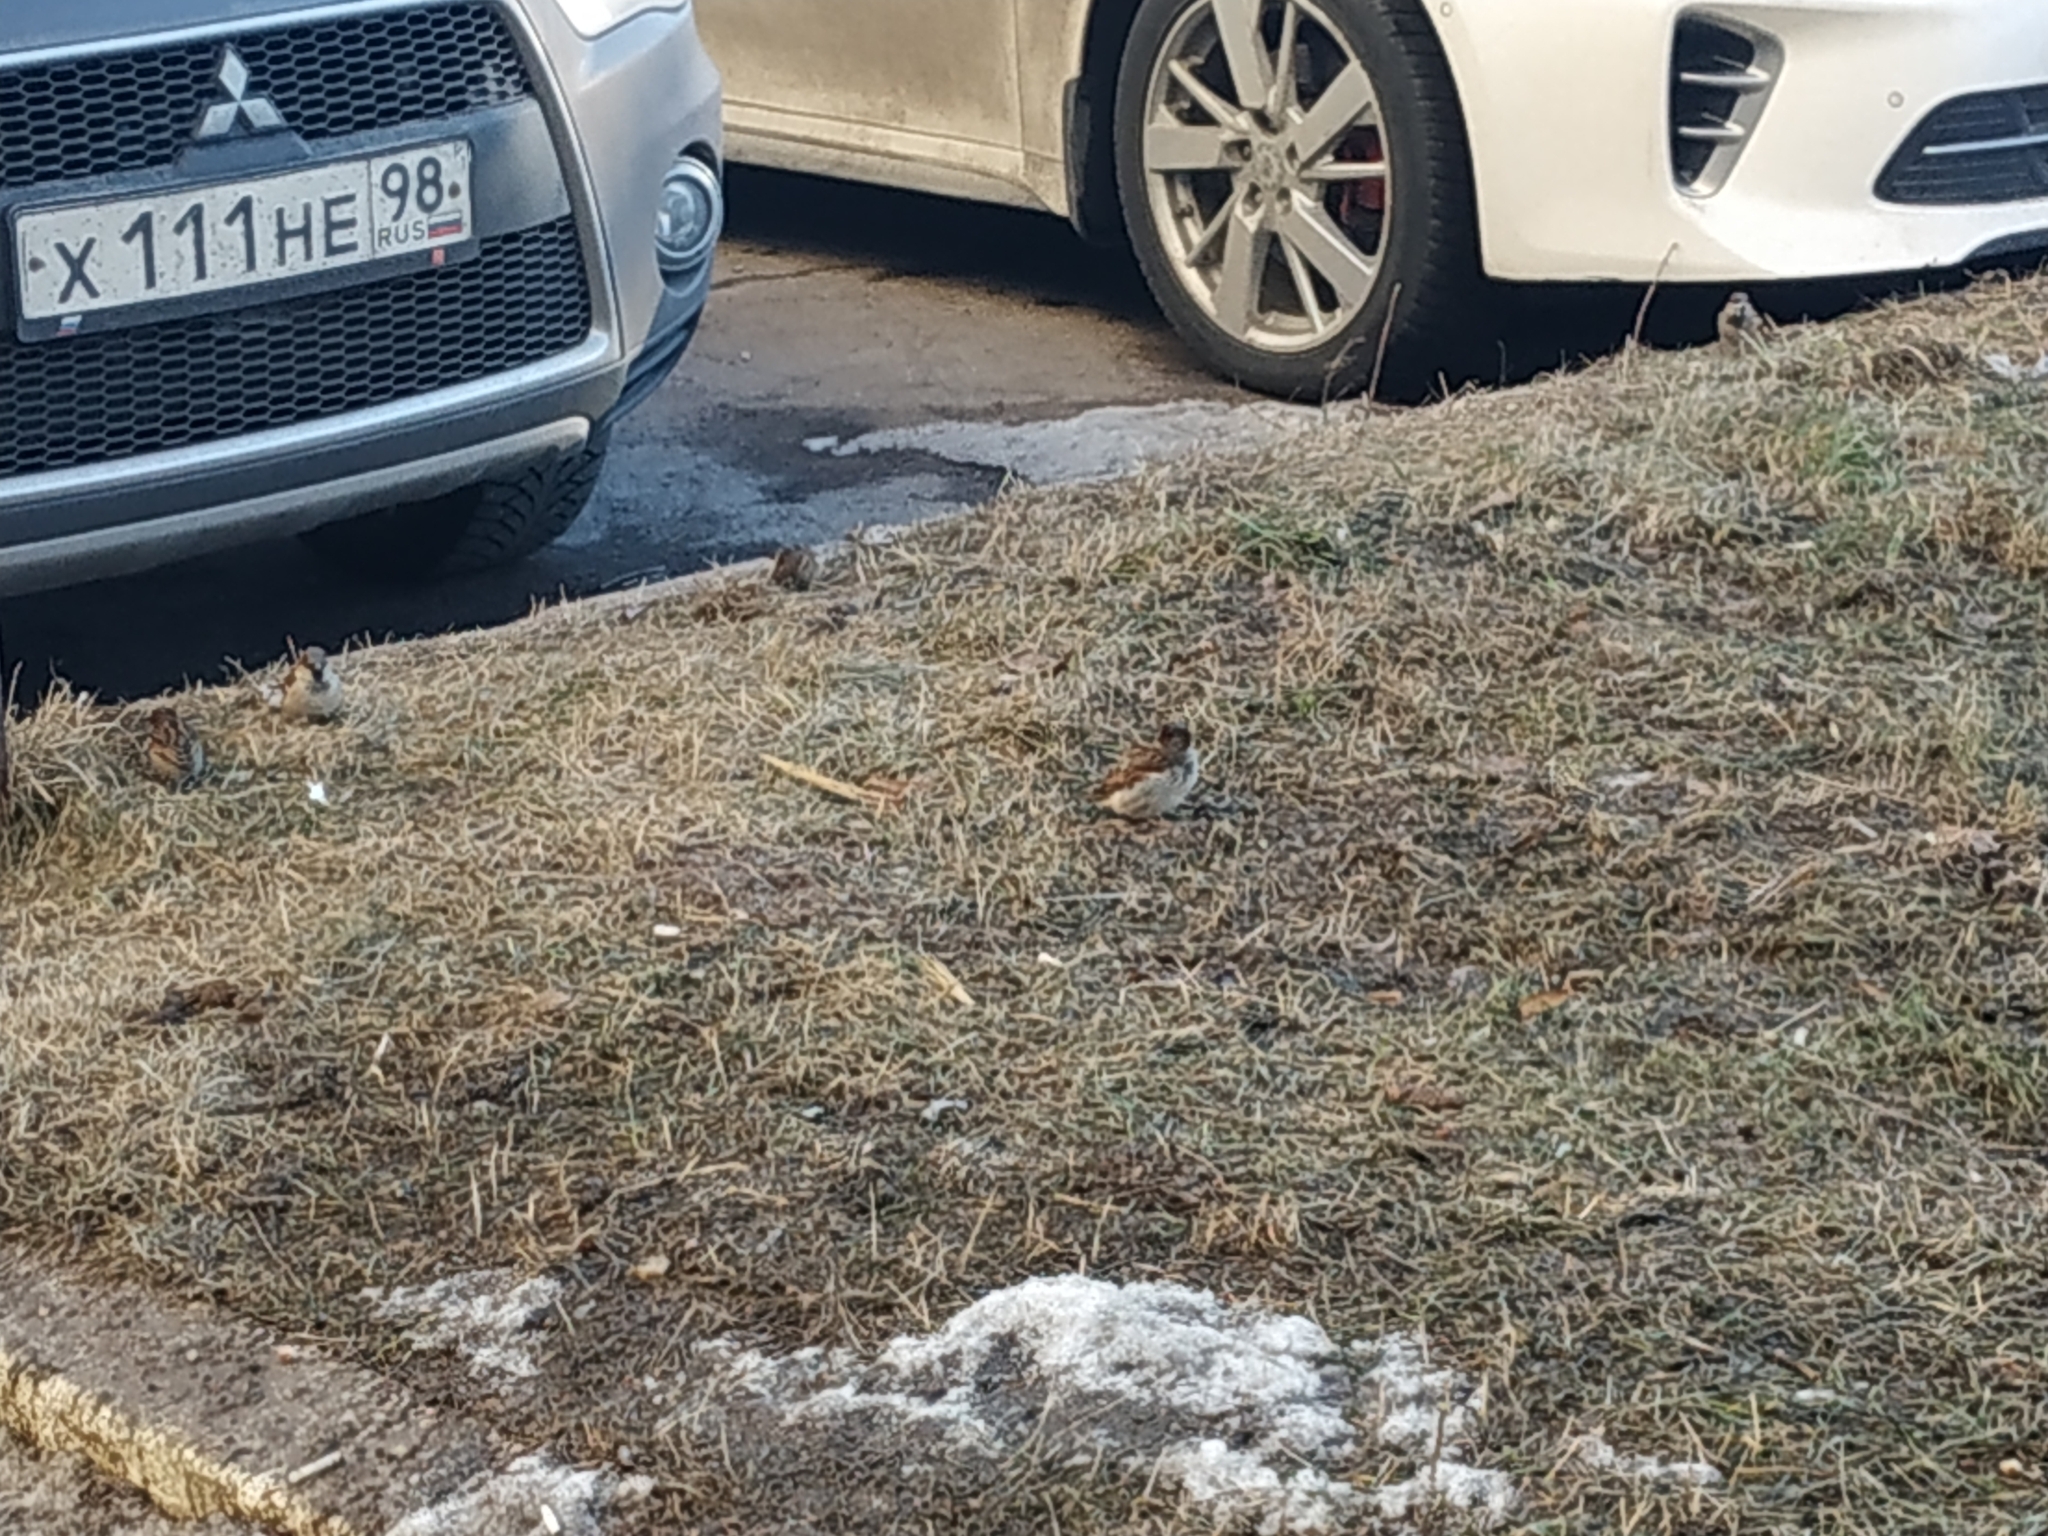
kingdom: Animalia
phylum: Chordata
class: Aves
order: Passeriformes
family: Passeridae
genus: Passer
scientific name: Passer domesticus
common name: House sparrow
